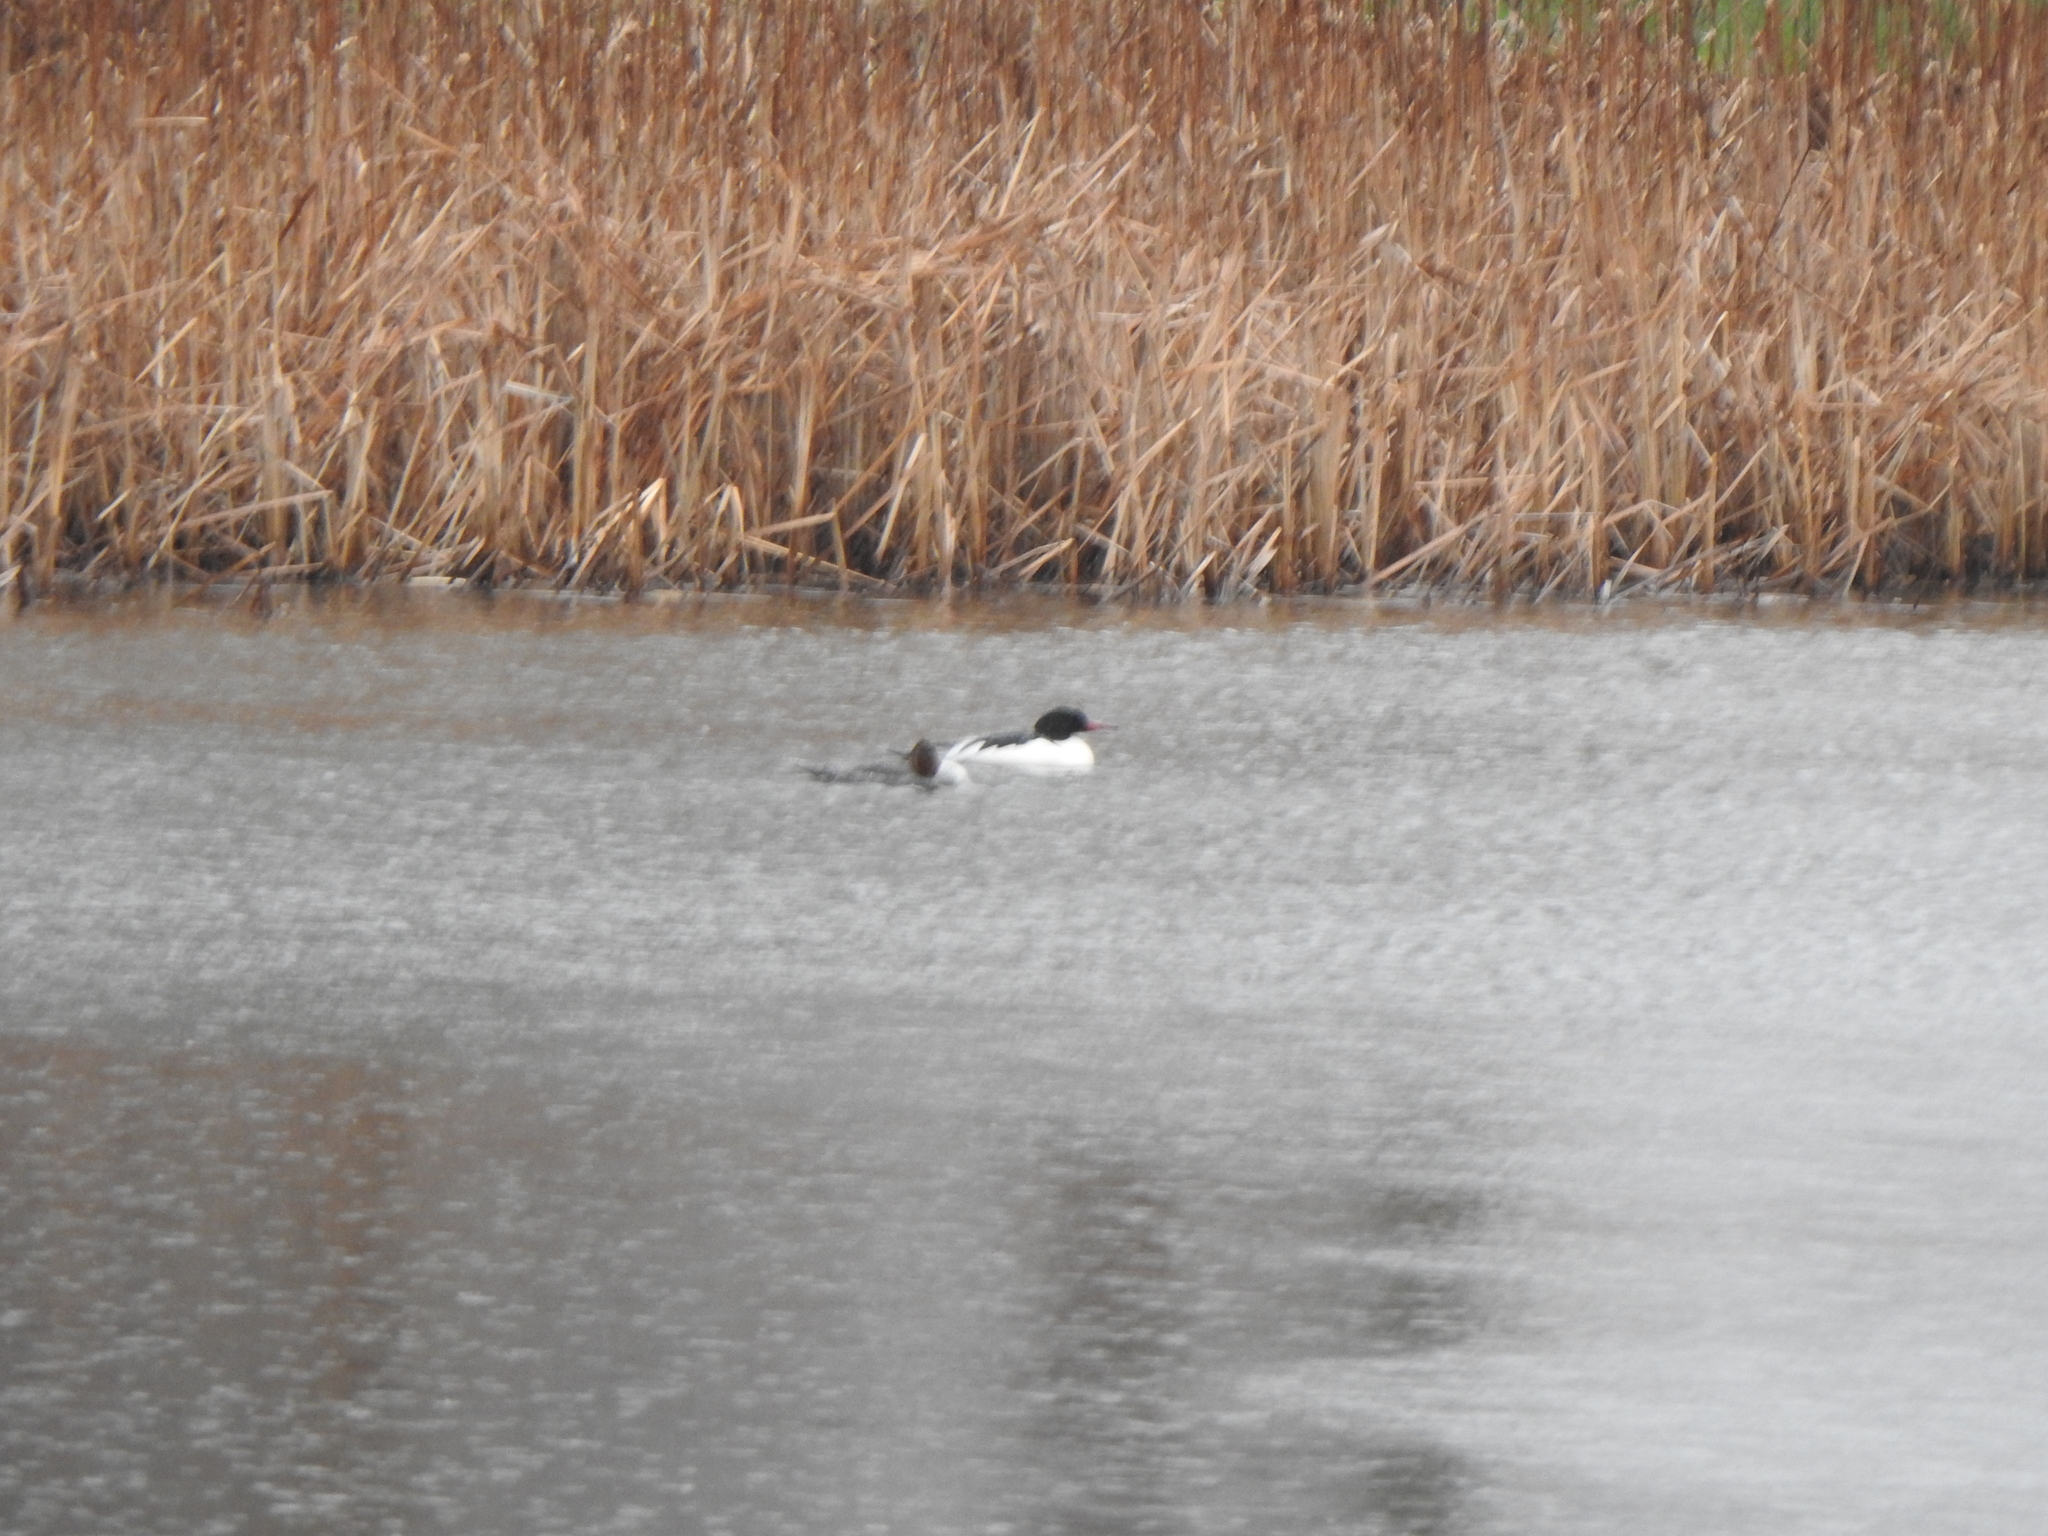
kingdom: Animalia
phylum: Chordata
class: Aves
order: Anseriformes
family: Anatidae
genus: Mergus
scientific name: Mergus merganser
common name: Common merganser
